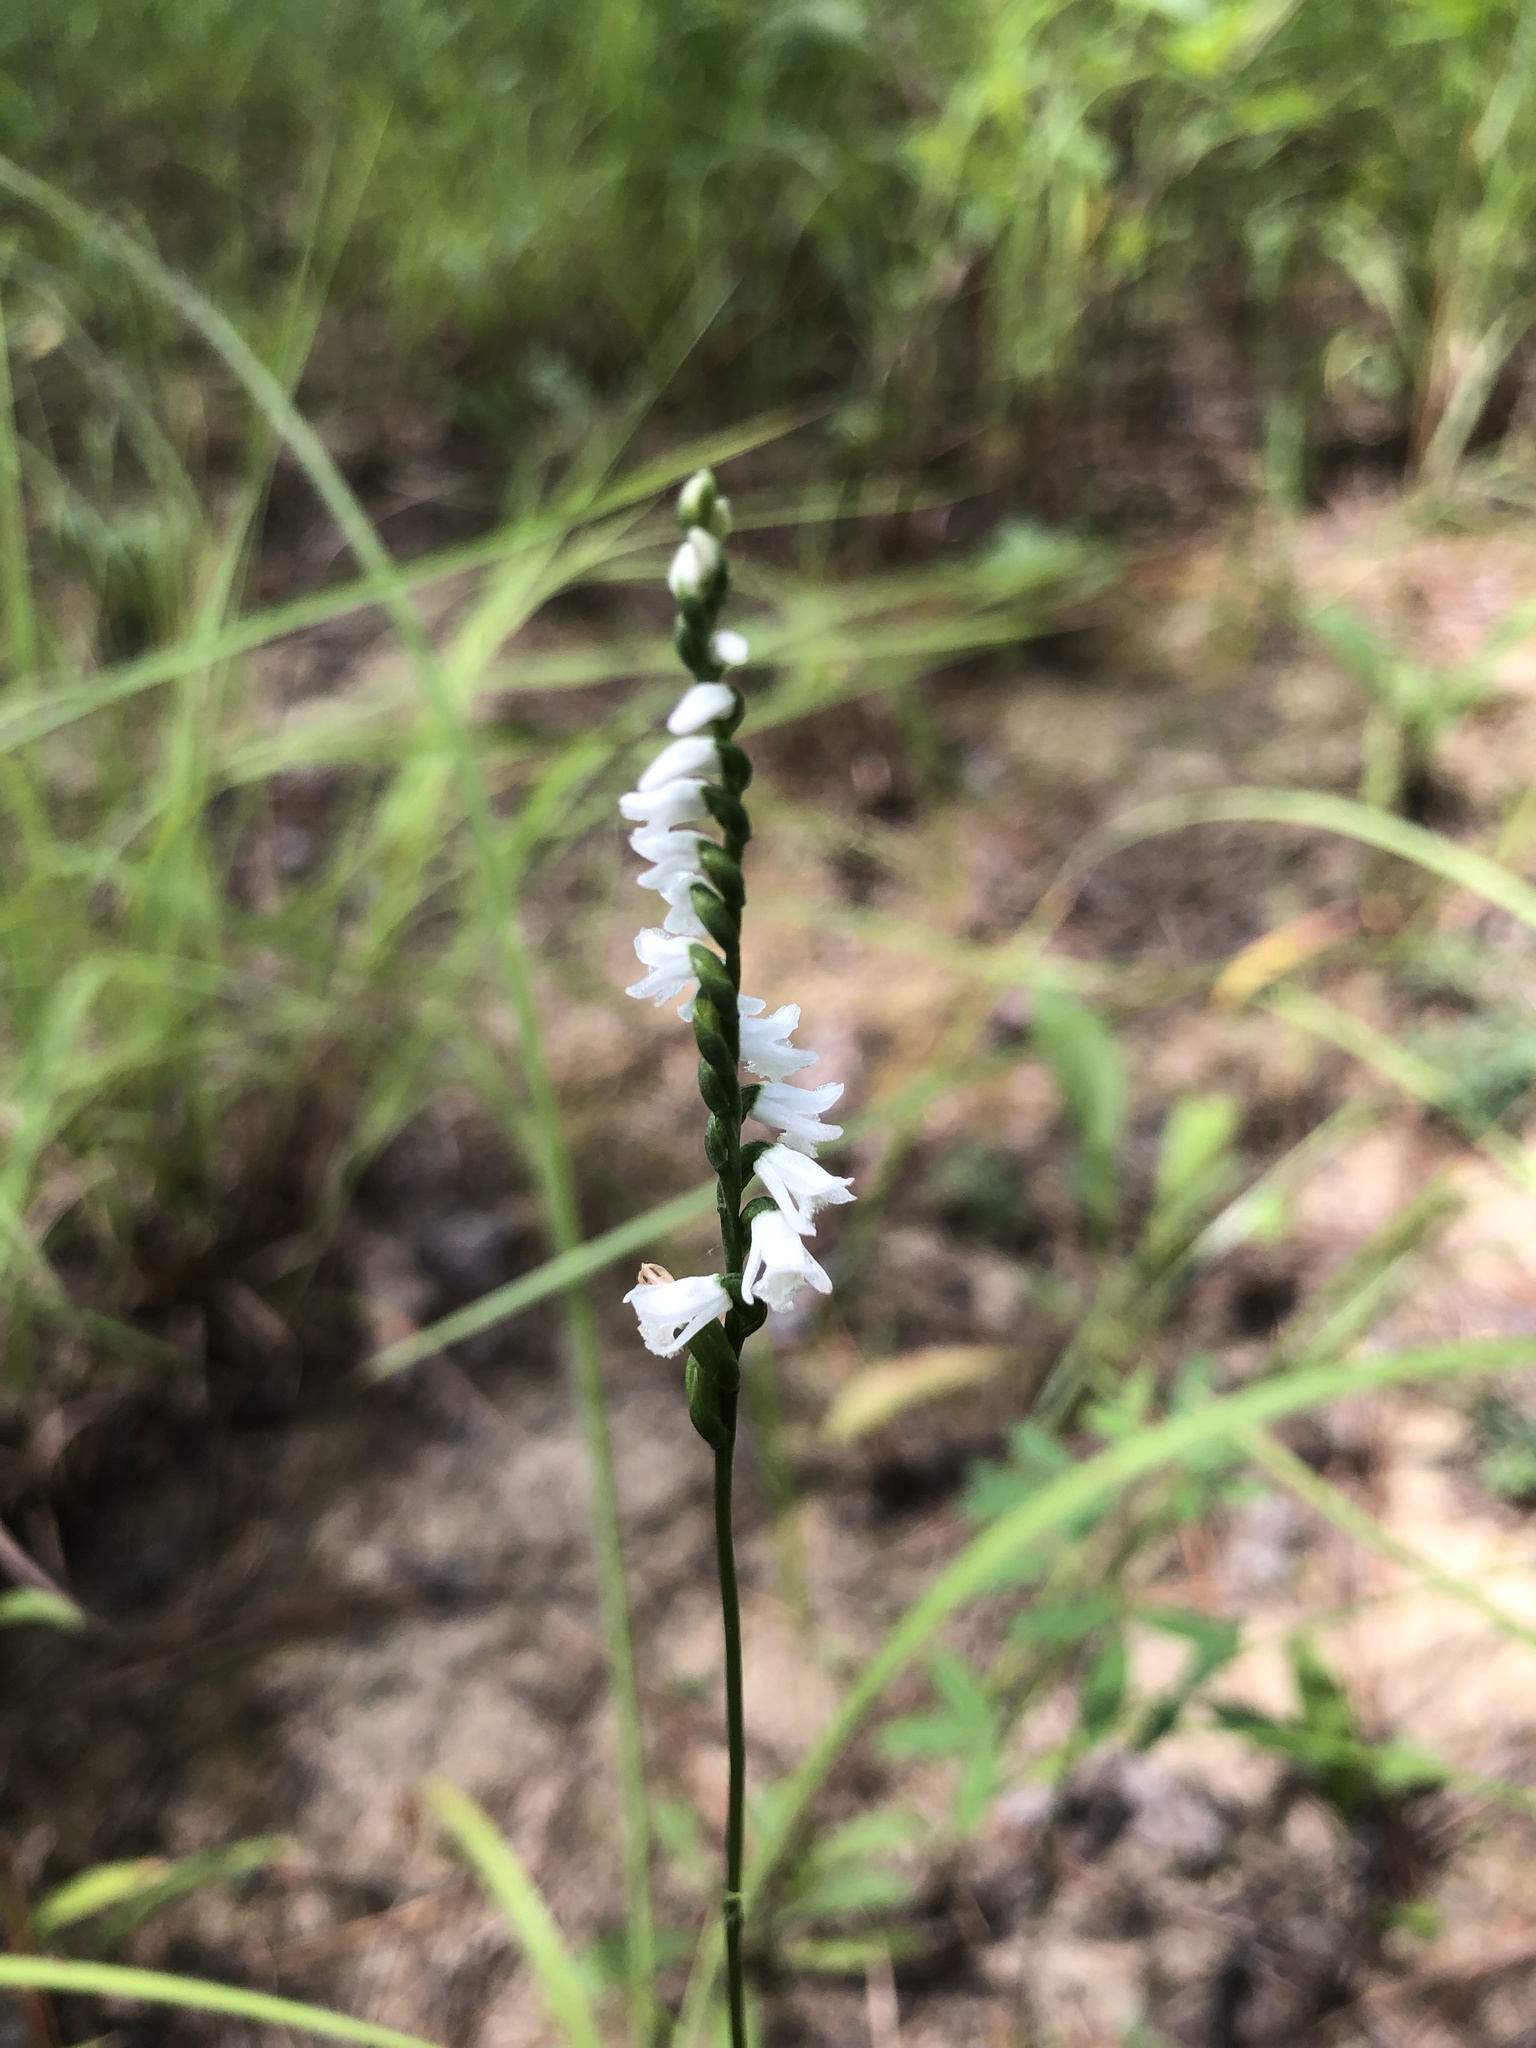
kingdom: Plantae
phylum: Tracheophyta
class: Liliopsida
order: Asparagales
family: Orchidaceae
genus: Spiranthes
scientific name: Spiranthes tuberosa
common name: Little ladies'-tresses
